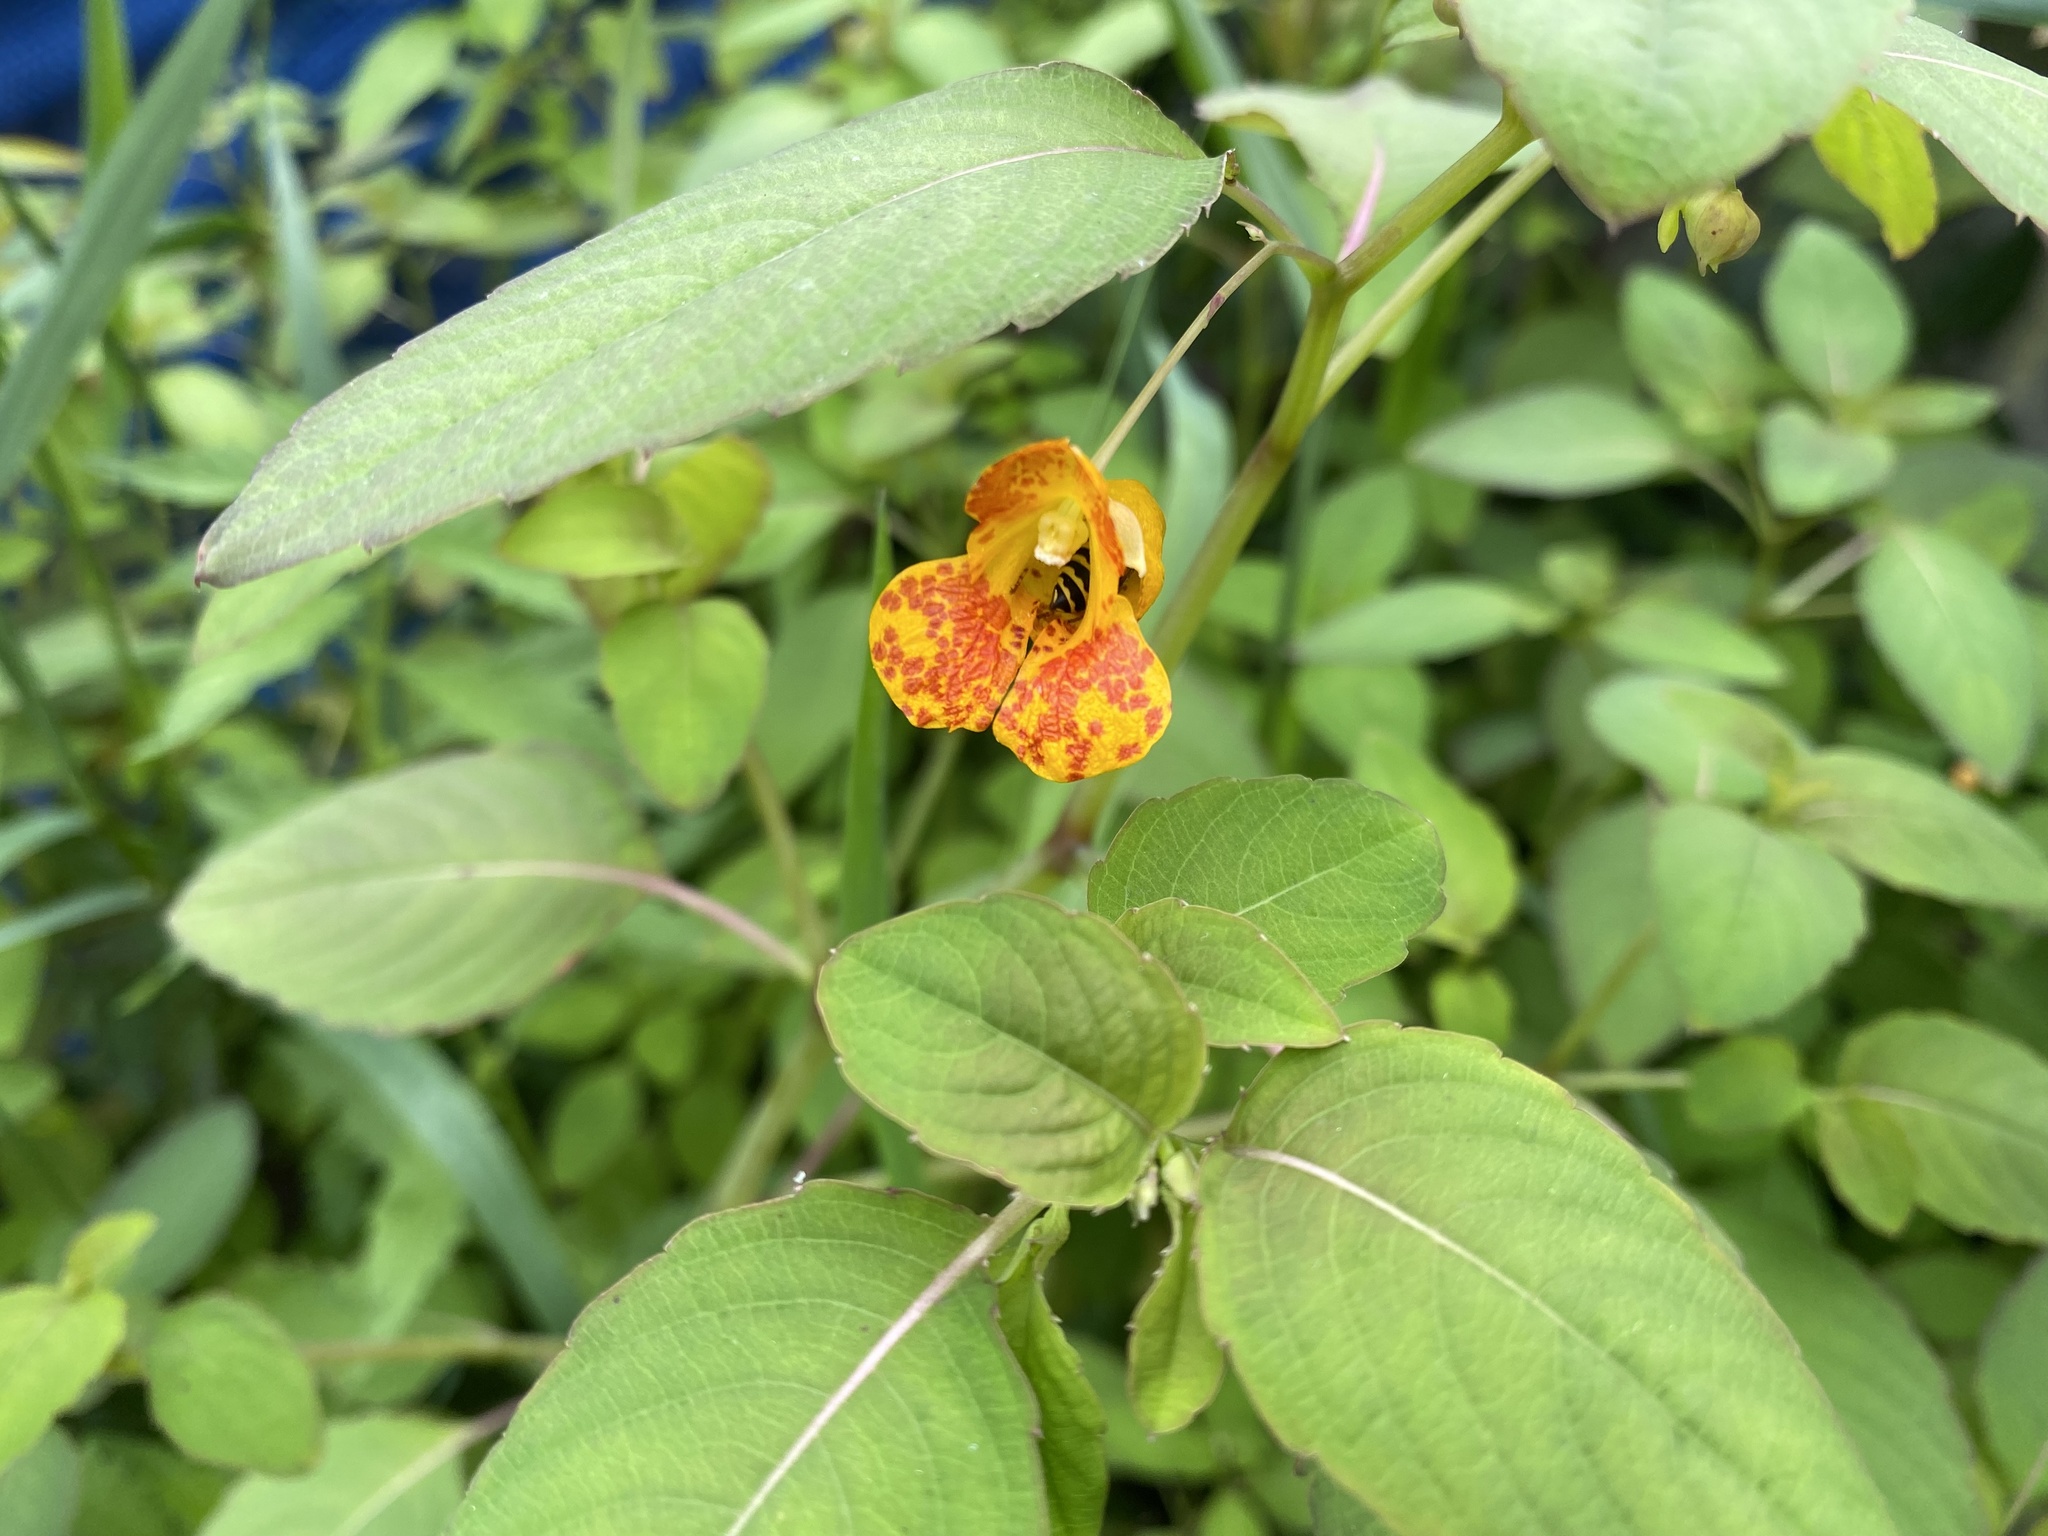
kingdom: Plantae
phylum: Tracheophyta
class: Magnoliopsida
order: Ericales
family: Balsaminaceae
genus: Impatiens
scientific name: Impatiens capensis
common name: Orange balsam
